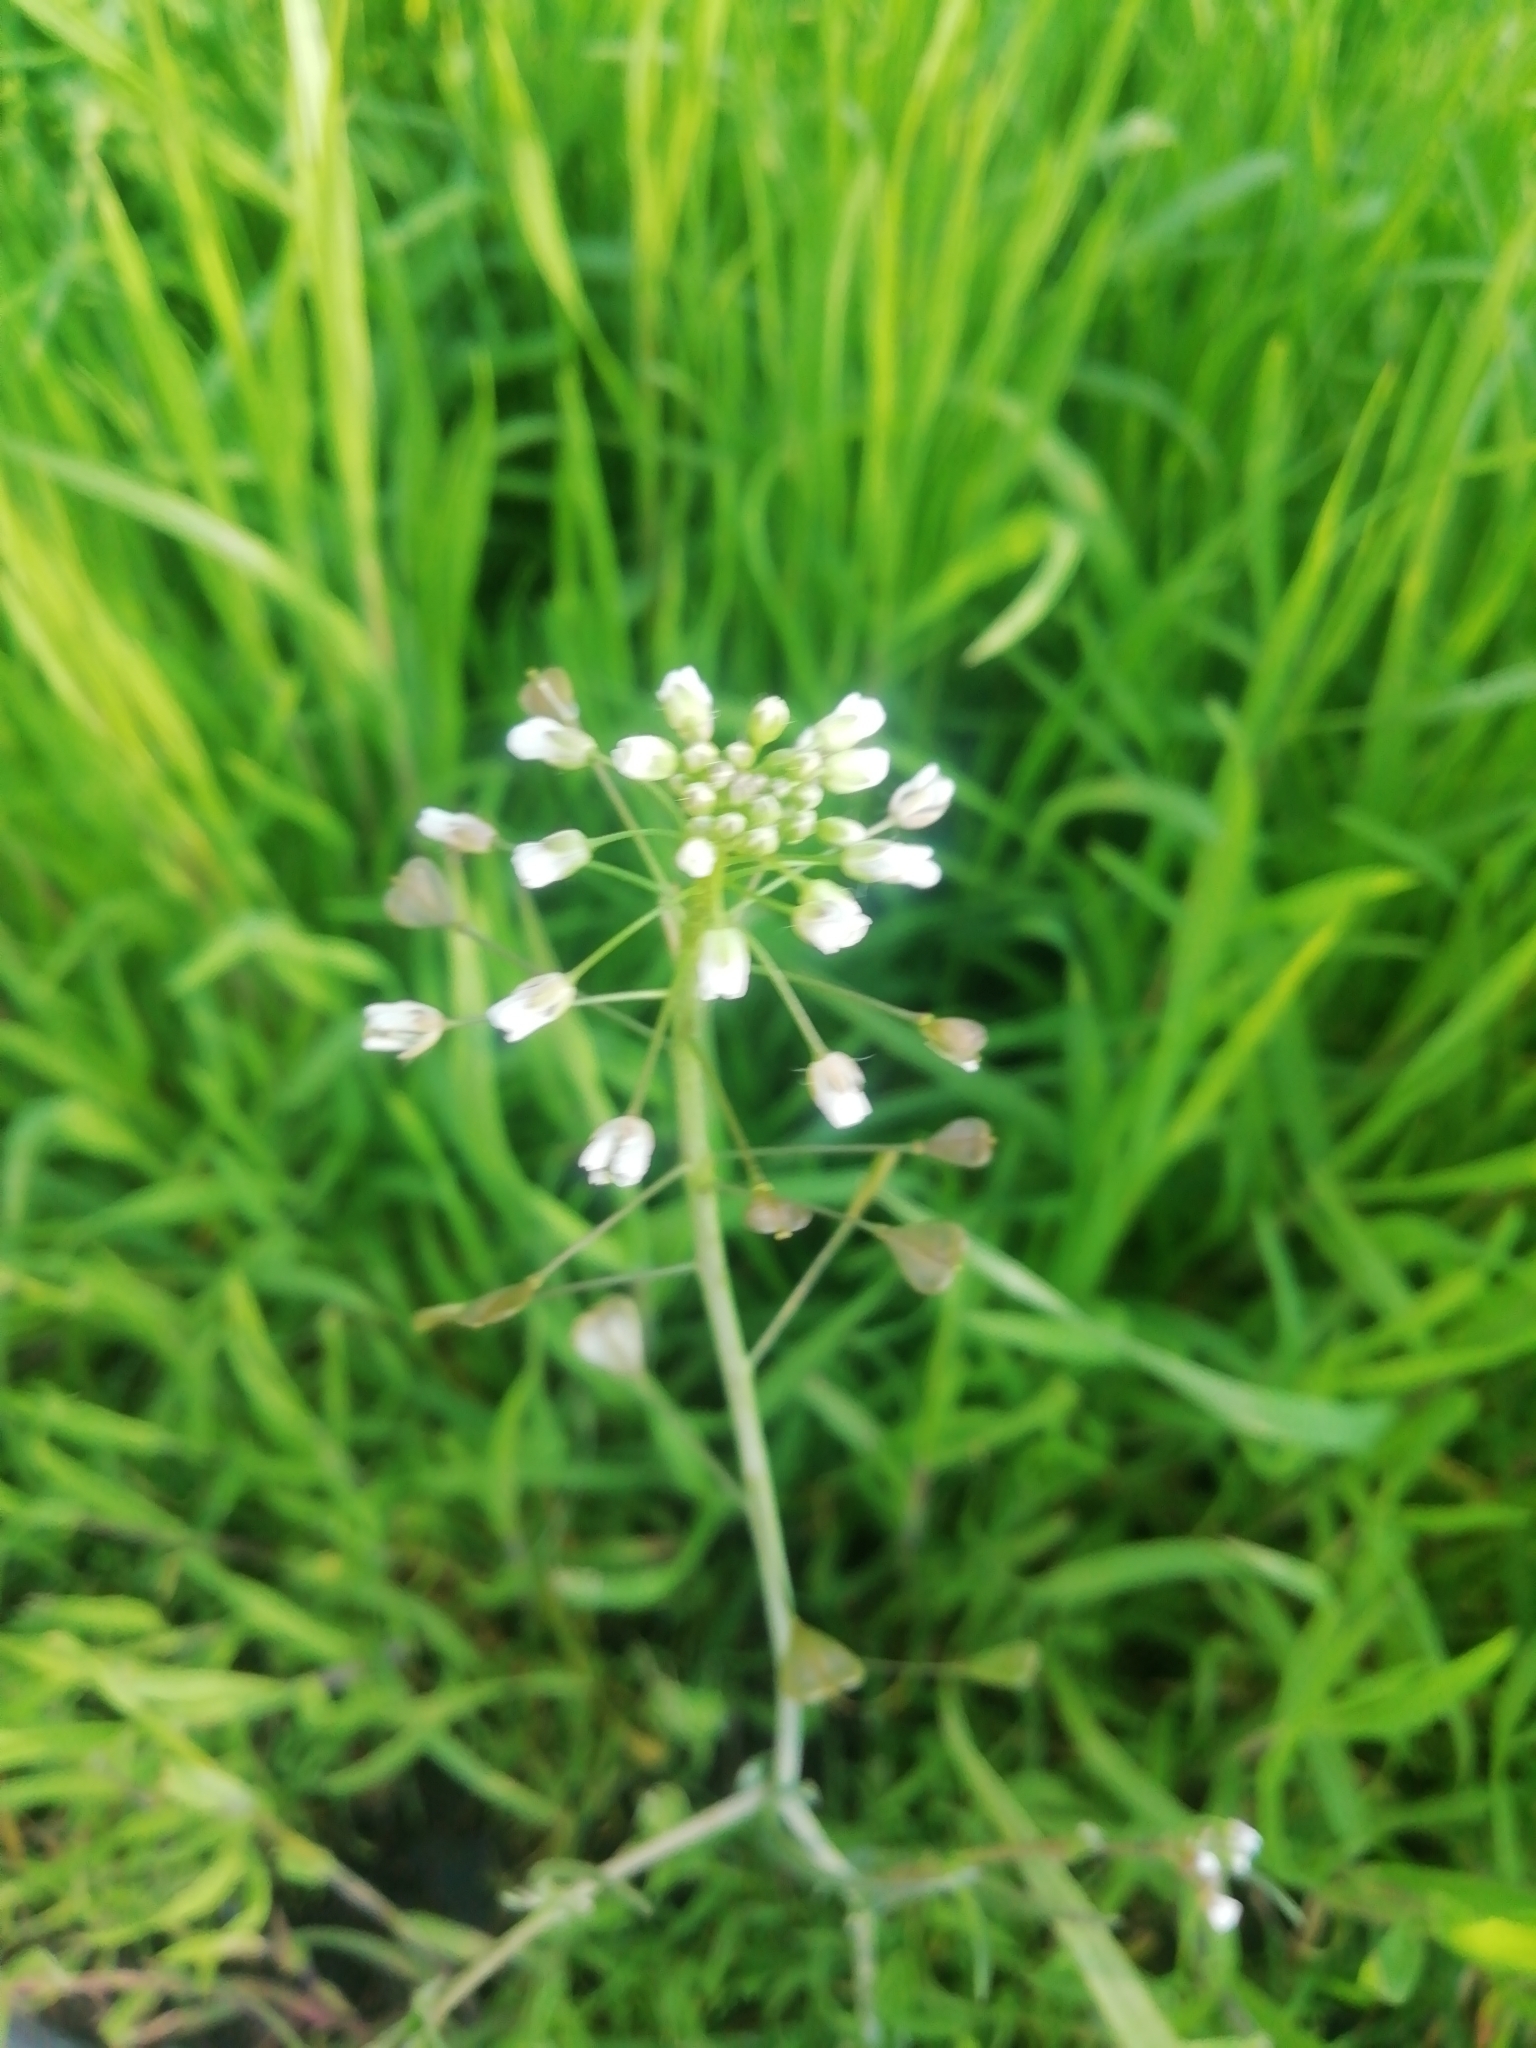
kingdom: Plantae
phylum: Tracheophyta
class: Magnoliopsida
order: Brassicales
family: Brassicaceae
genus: Capsella
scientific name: Capsella bursa-pastoris
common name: Shepherd's purse
